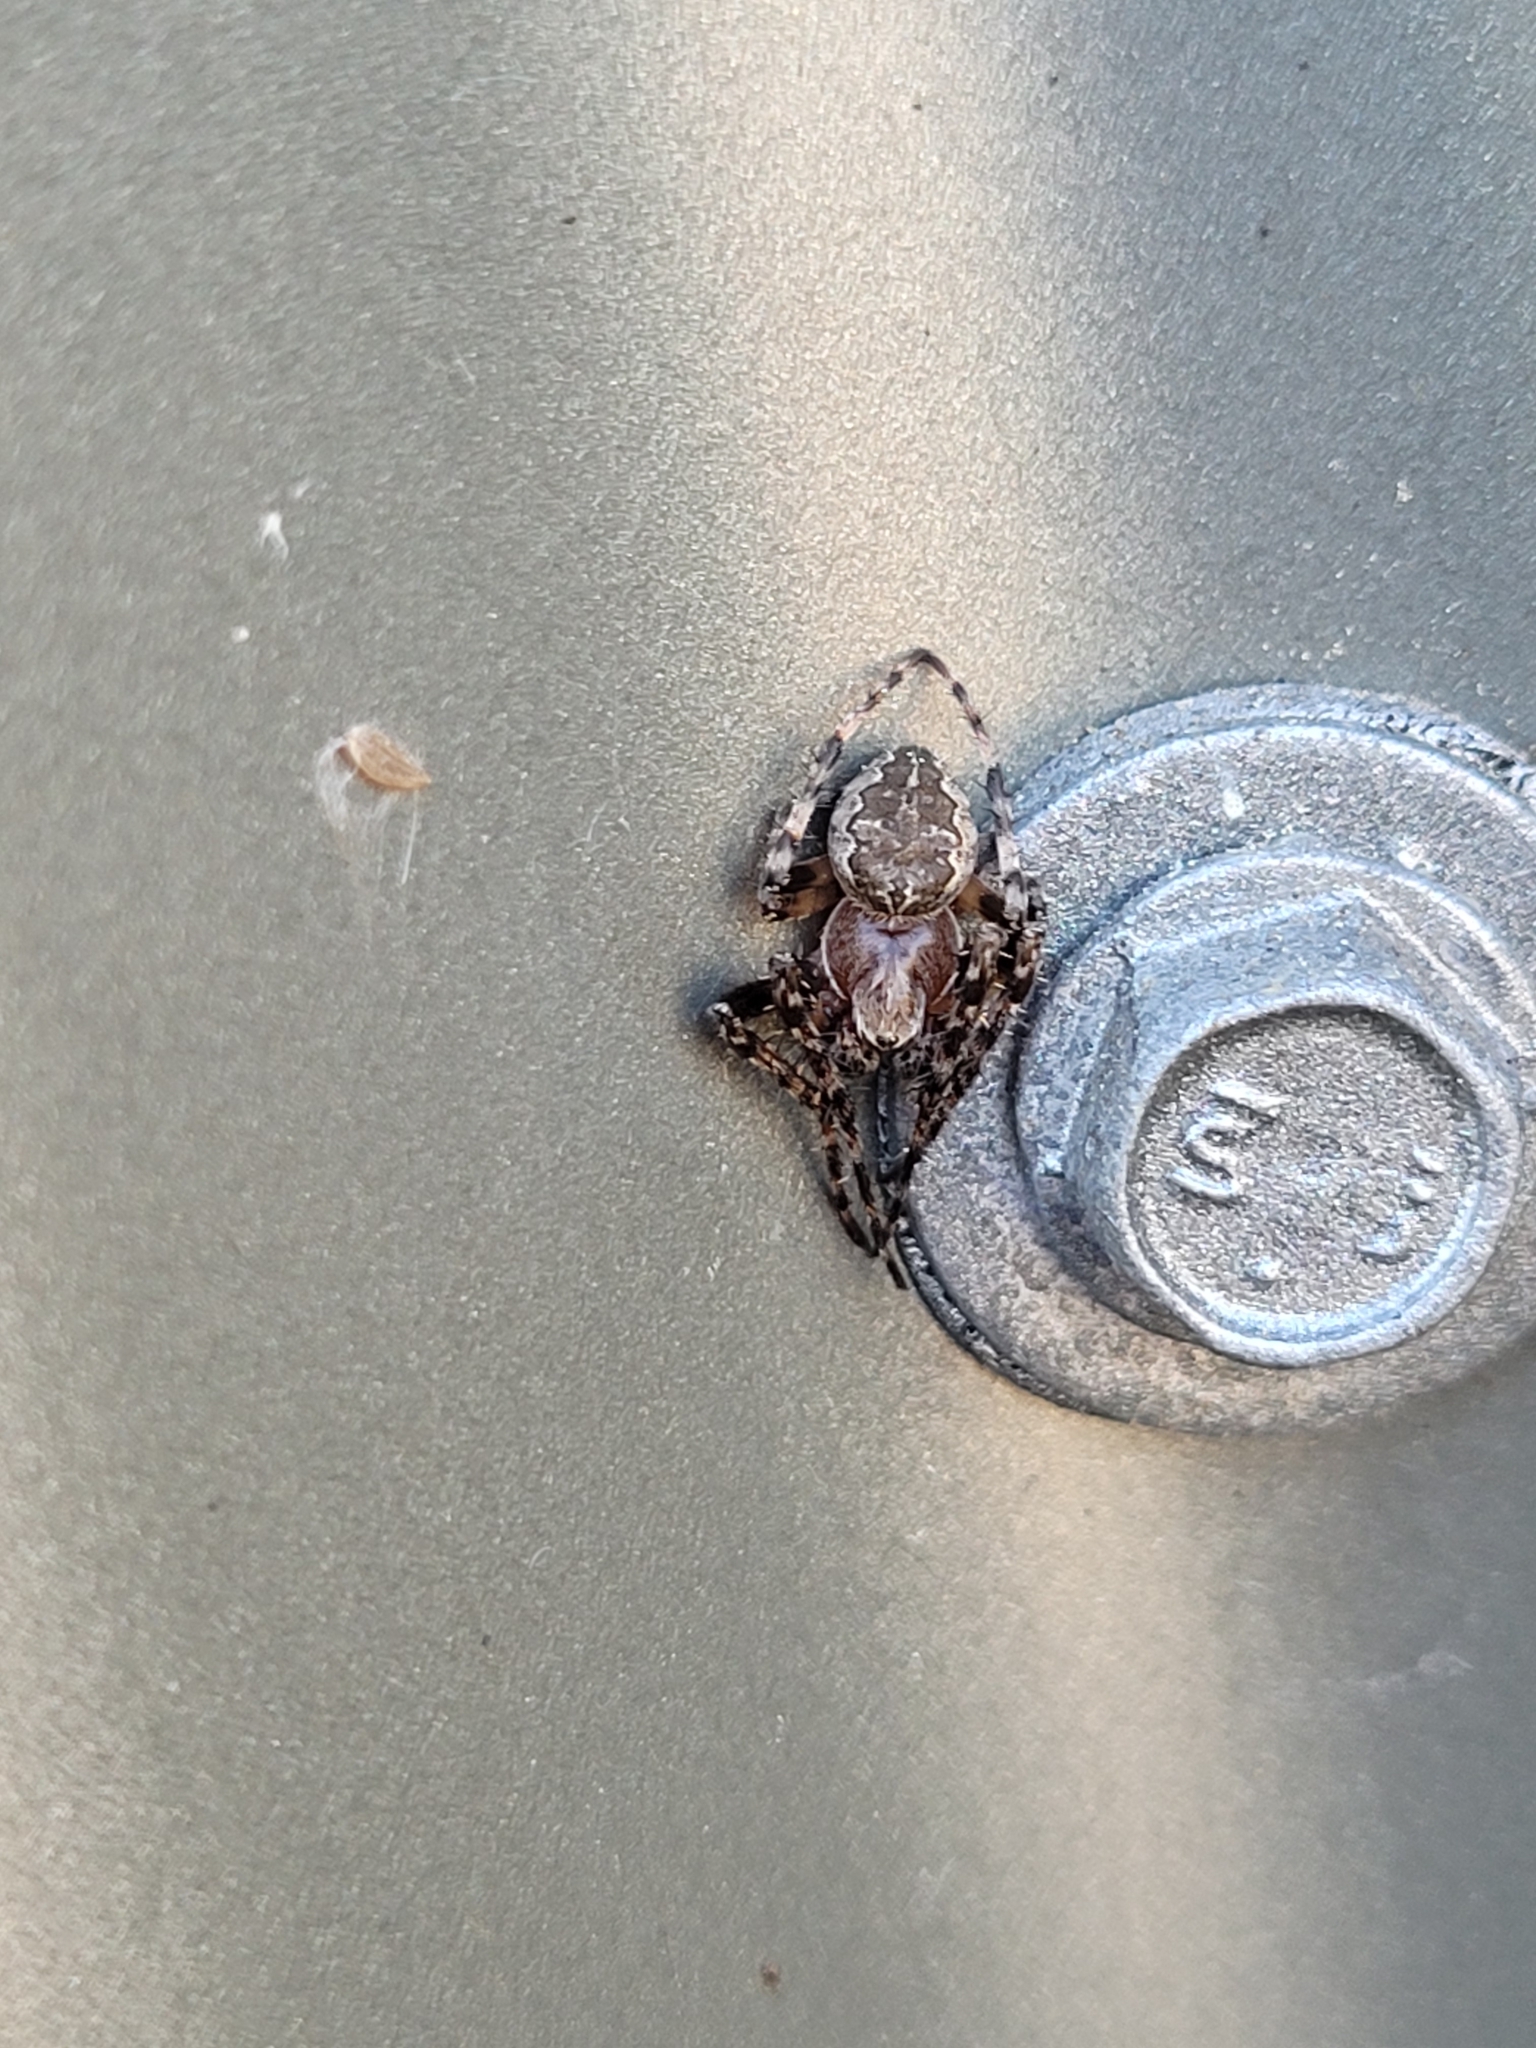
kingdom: Animalia
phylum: Arthropoda
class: Arachnida
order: Araneae
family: Araneidae
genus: Larinioides
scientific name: Larinioides sclopetarius
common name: Bridge orbweaver
